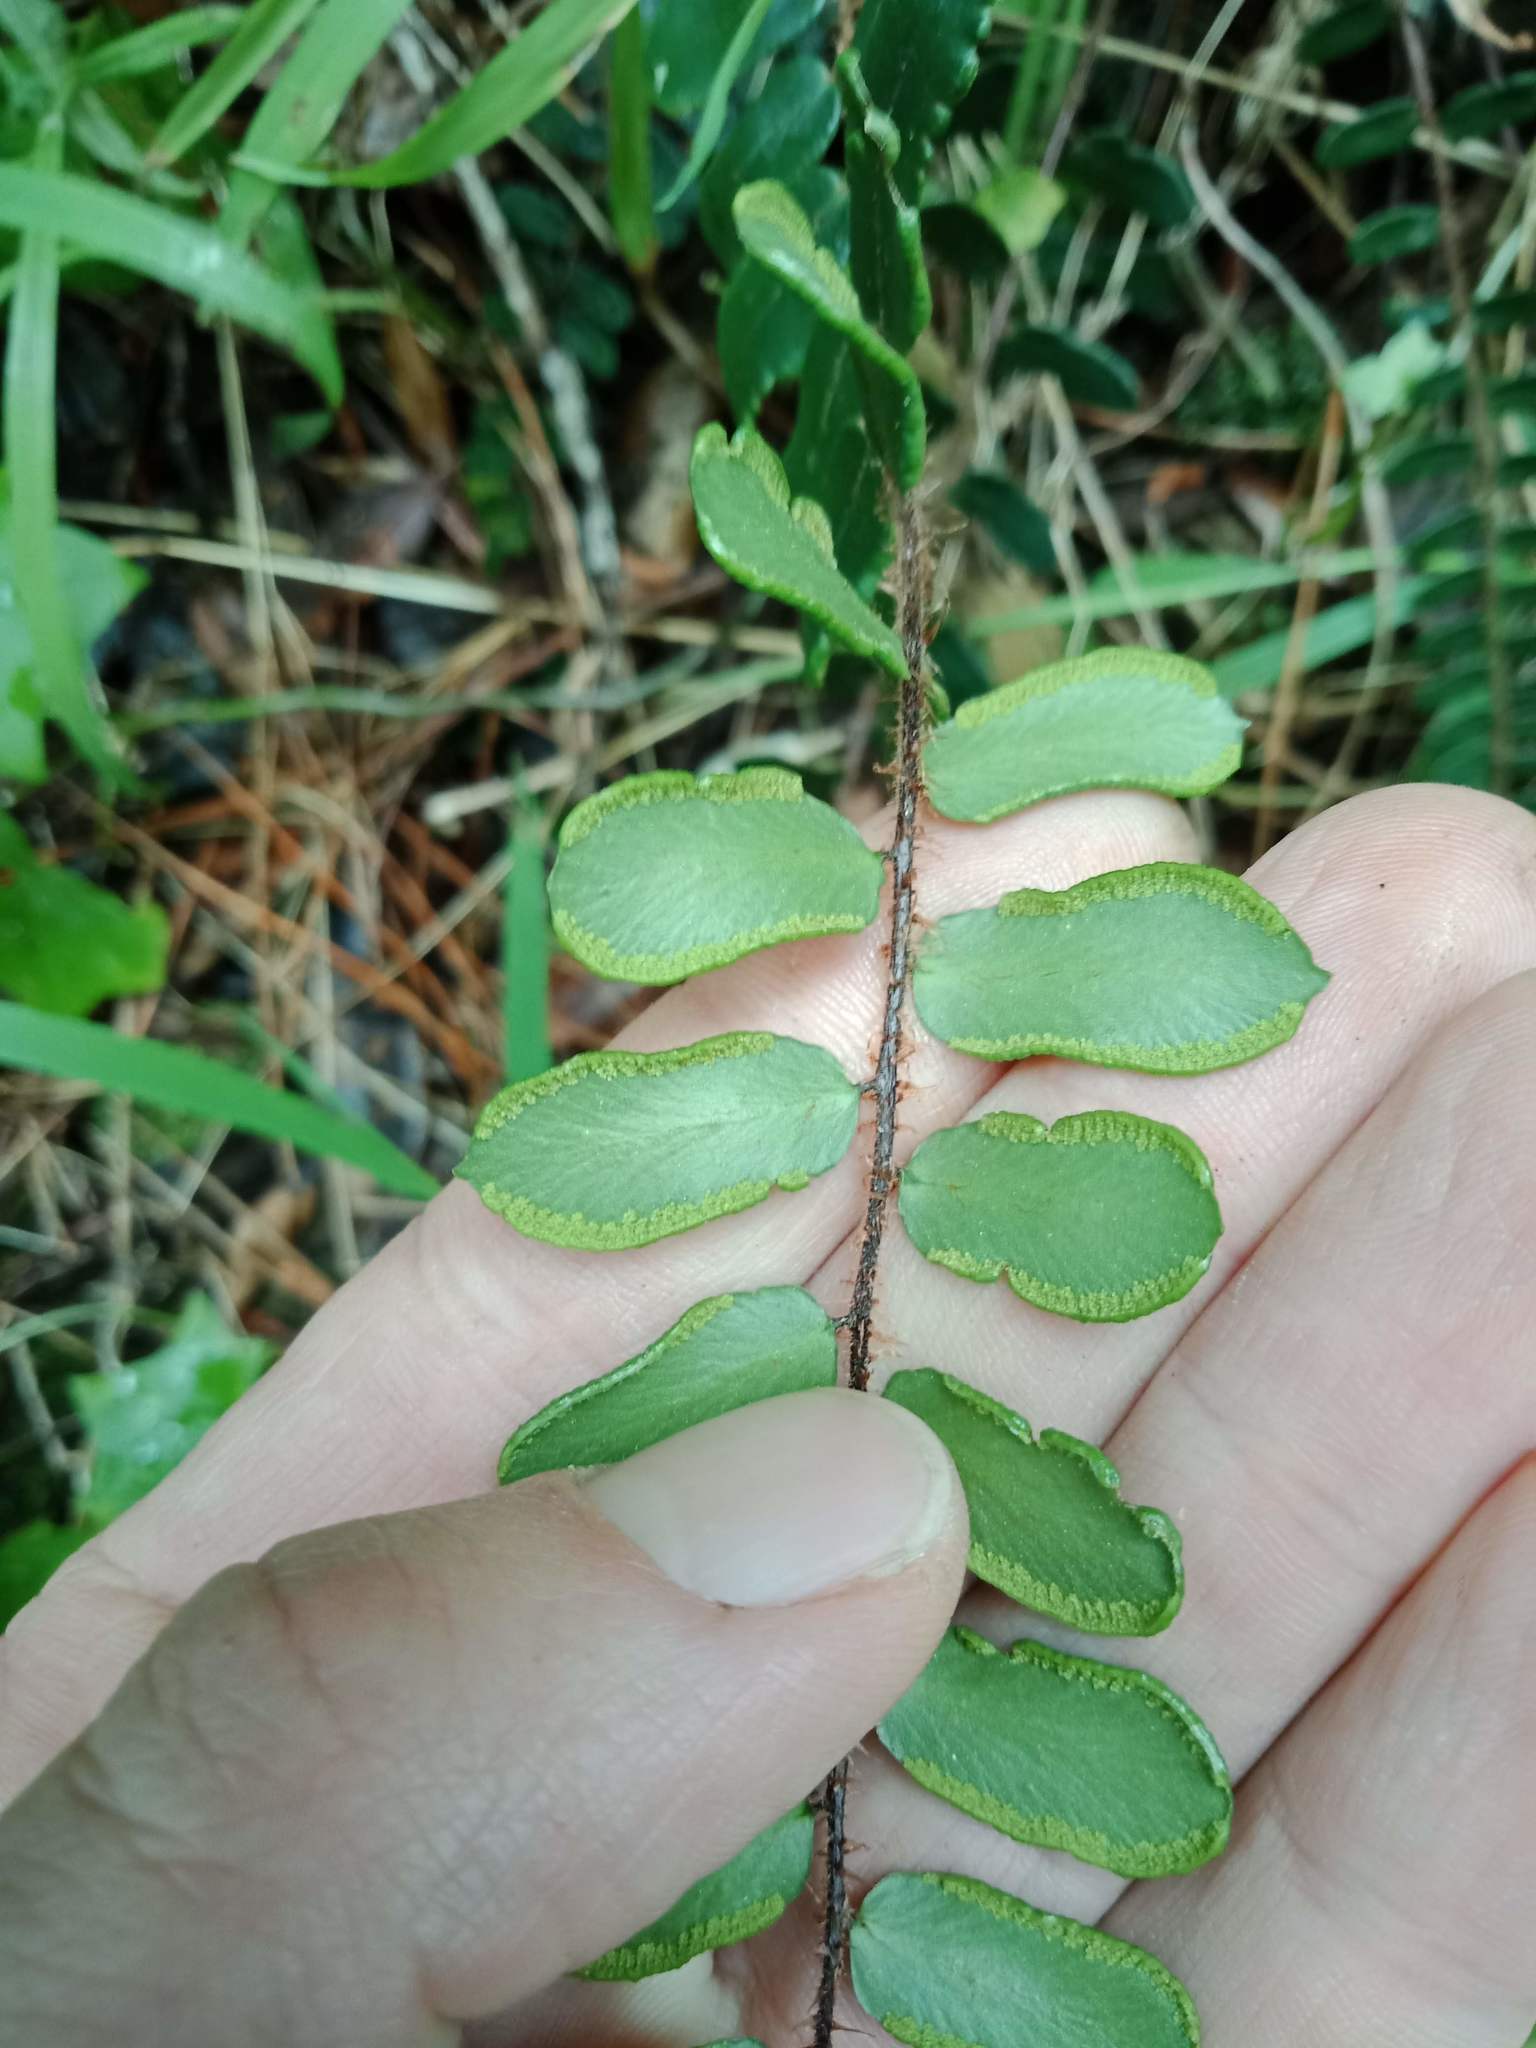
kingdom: Plantae
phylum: Tracheophyta
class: Polypodiopsida
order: Polypodiales
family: Pteridaceae
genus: Pellaea
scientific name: Pellaea rotundifolia
